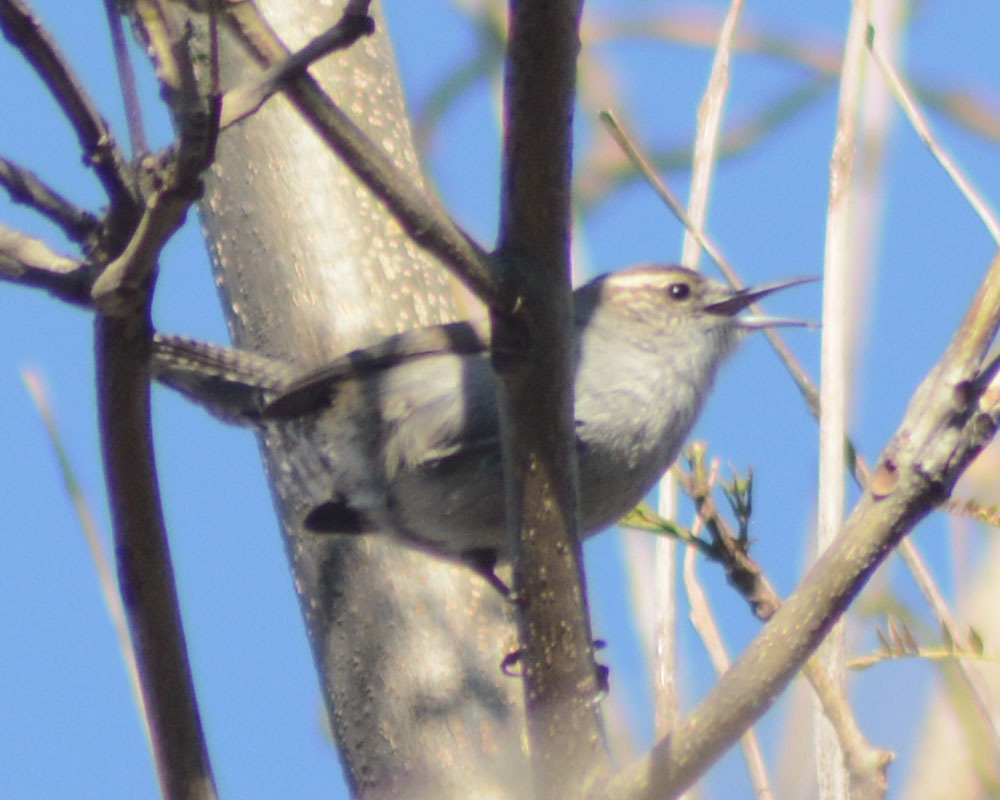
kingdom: Animalia
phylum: Chordata
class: Aves
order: Passeriformes
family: Troglodytidae
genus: Thryomanes
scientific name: Thryomanes bewickii
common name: Bewick's wren
